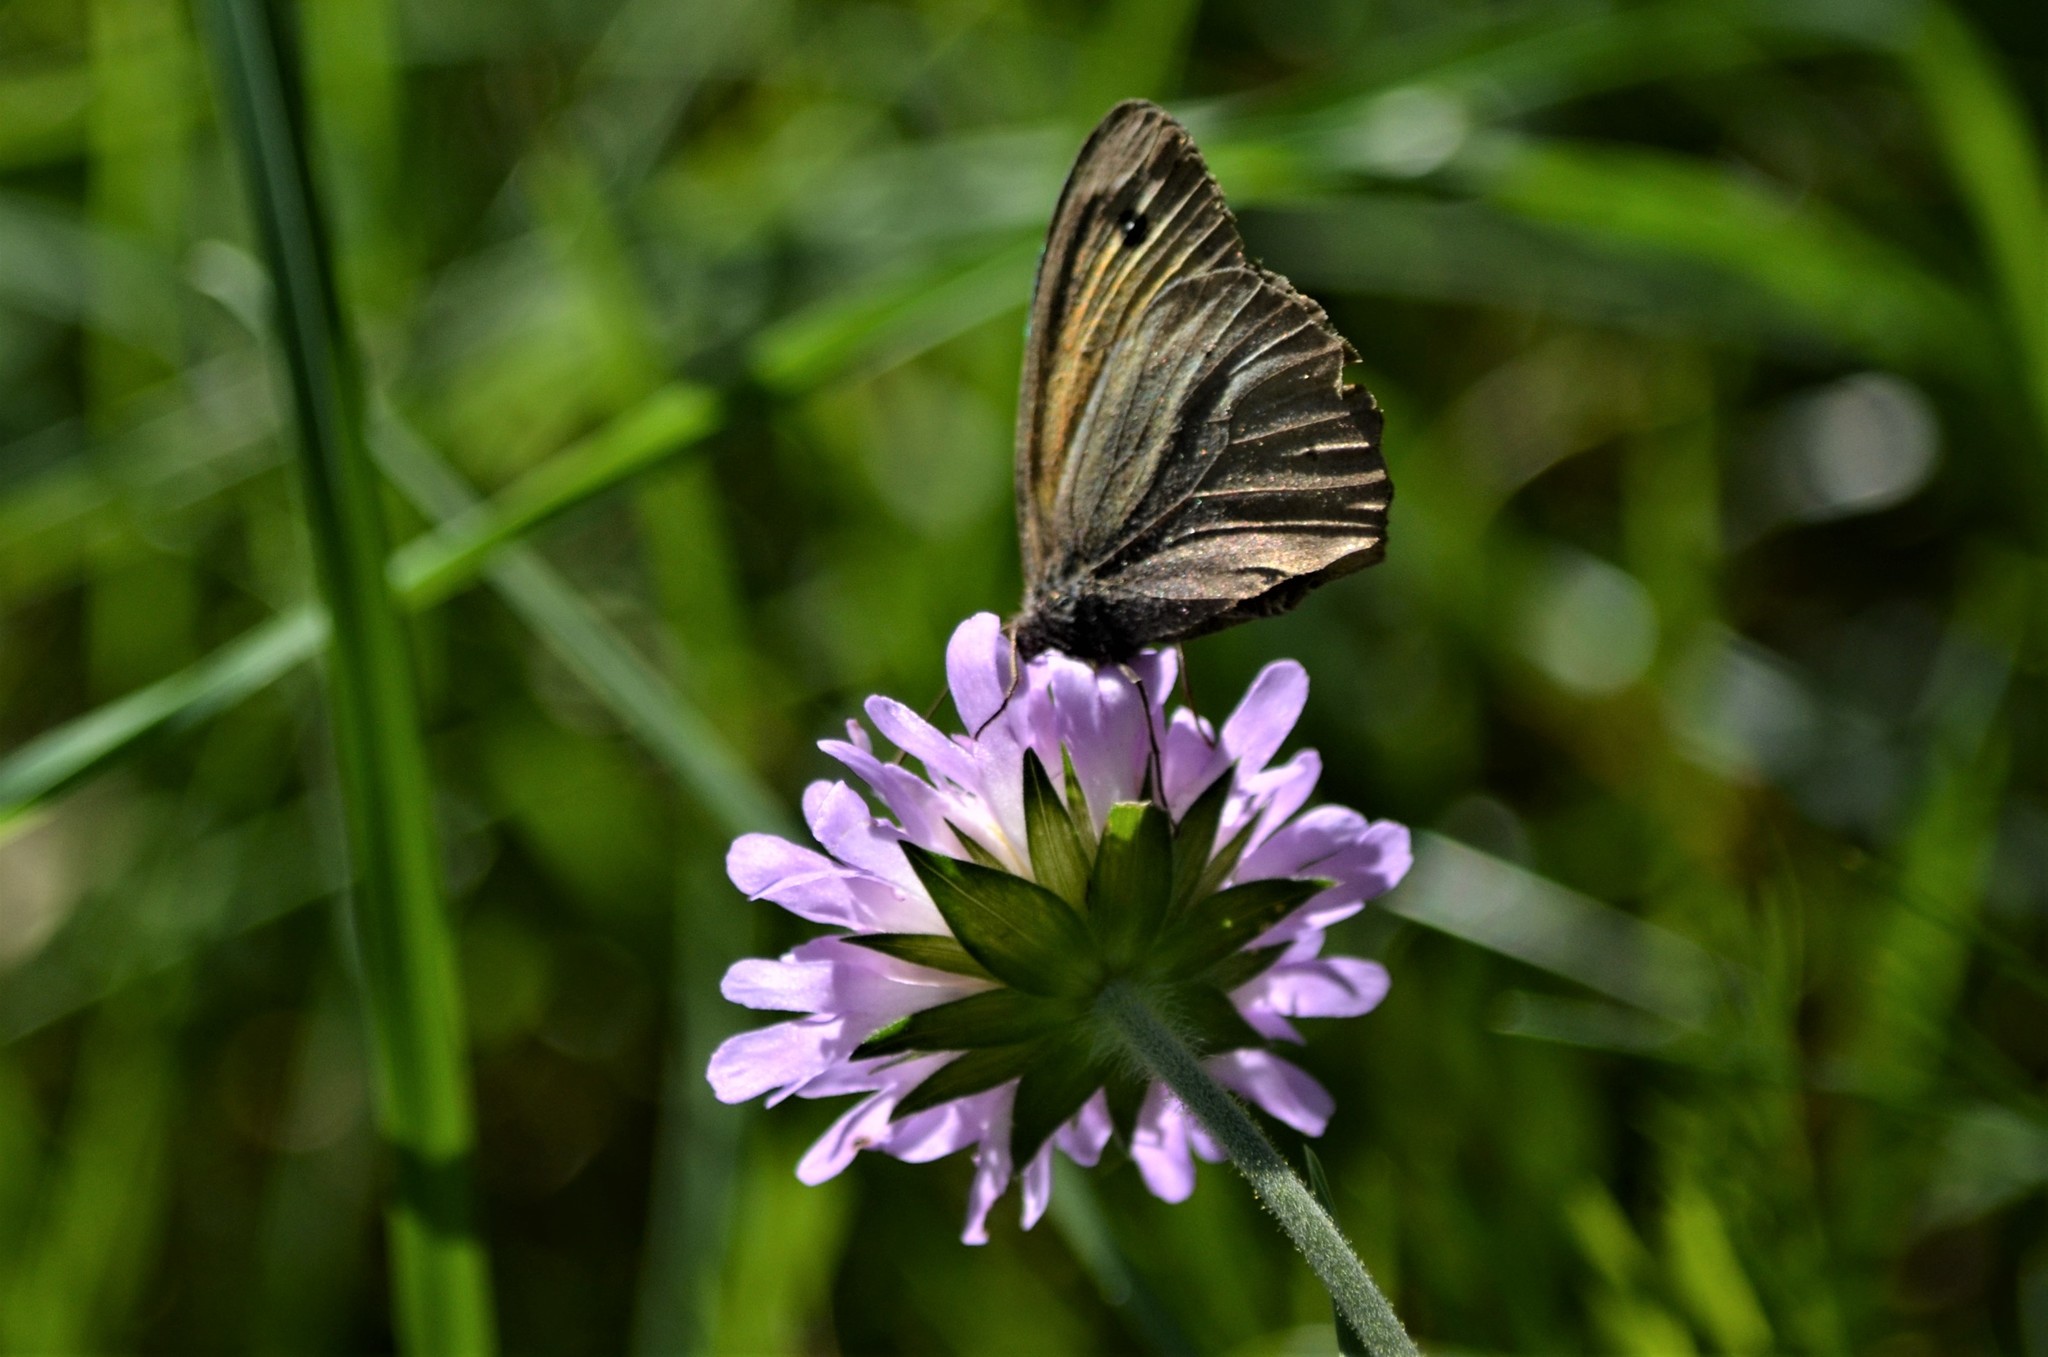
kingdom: Animalia
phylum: Arthropoda
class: Insecta
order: Lepidoptera
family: Nymphalidae
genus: Maniola
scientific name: Maniola jurtina
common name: Meadow brown
